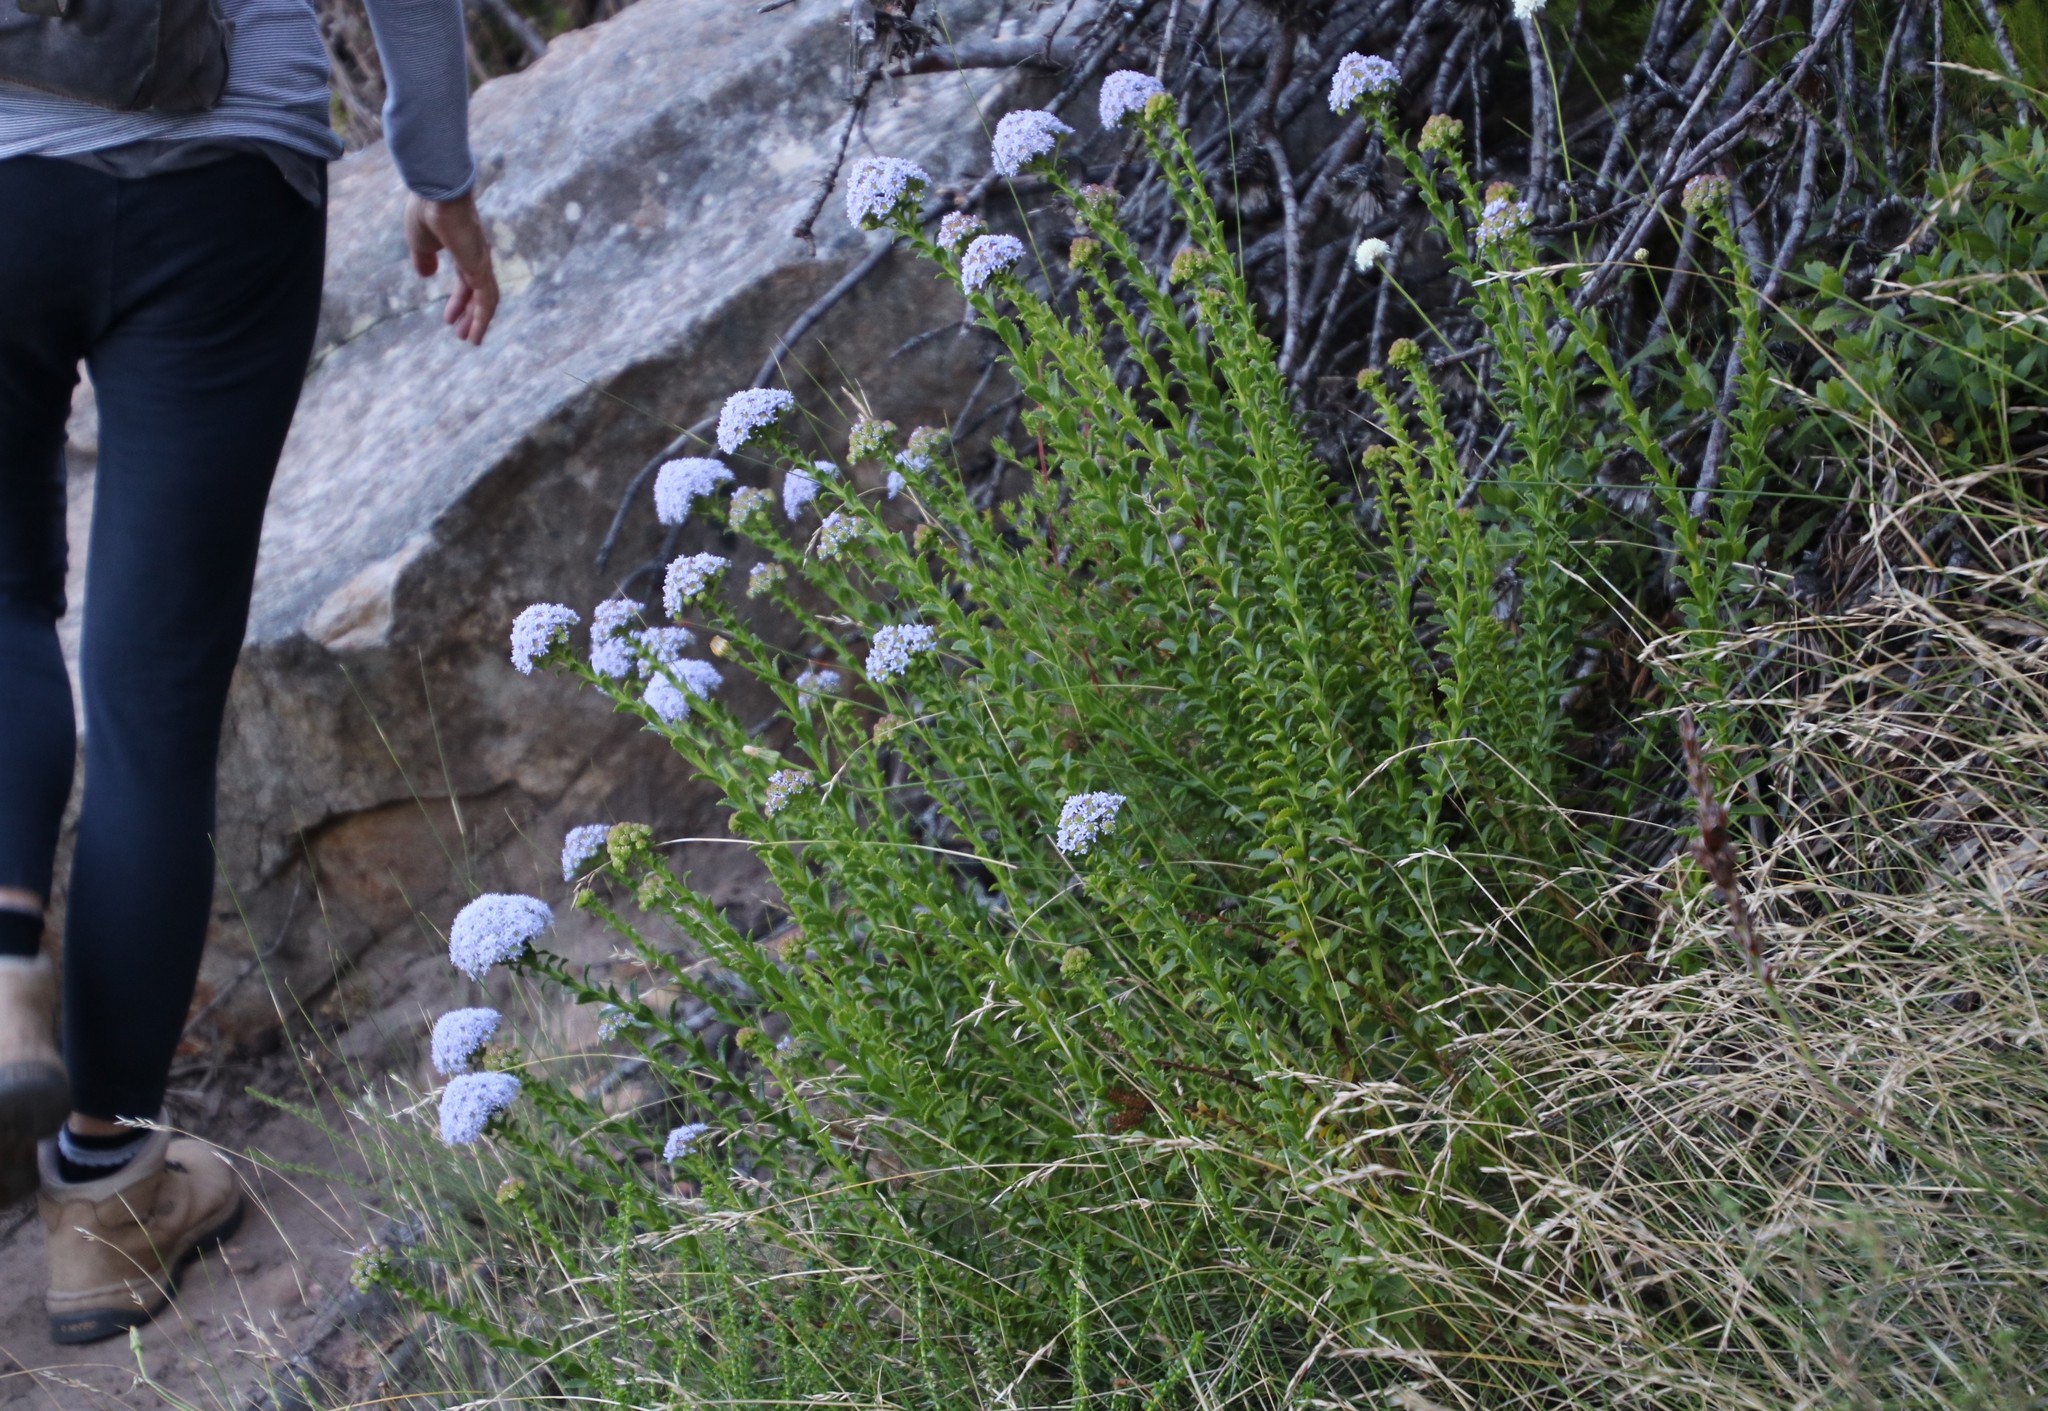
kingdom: Plantae
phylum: Tracheophyta
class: Magnoliopsida
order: Lamiales
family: Scrophulariaceae
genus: Pseudoselago
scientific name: Pseudoselago serrata
